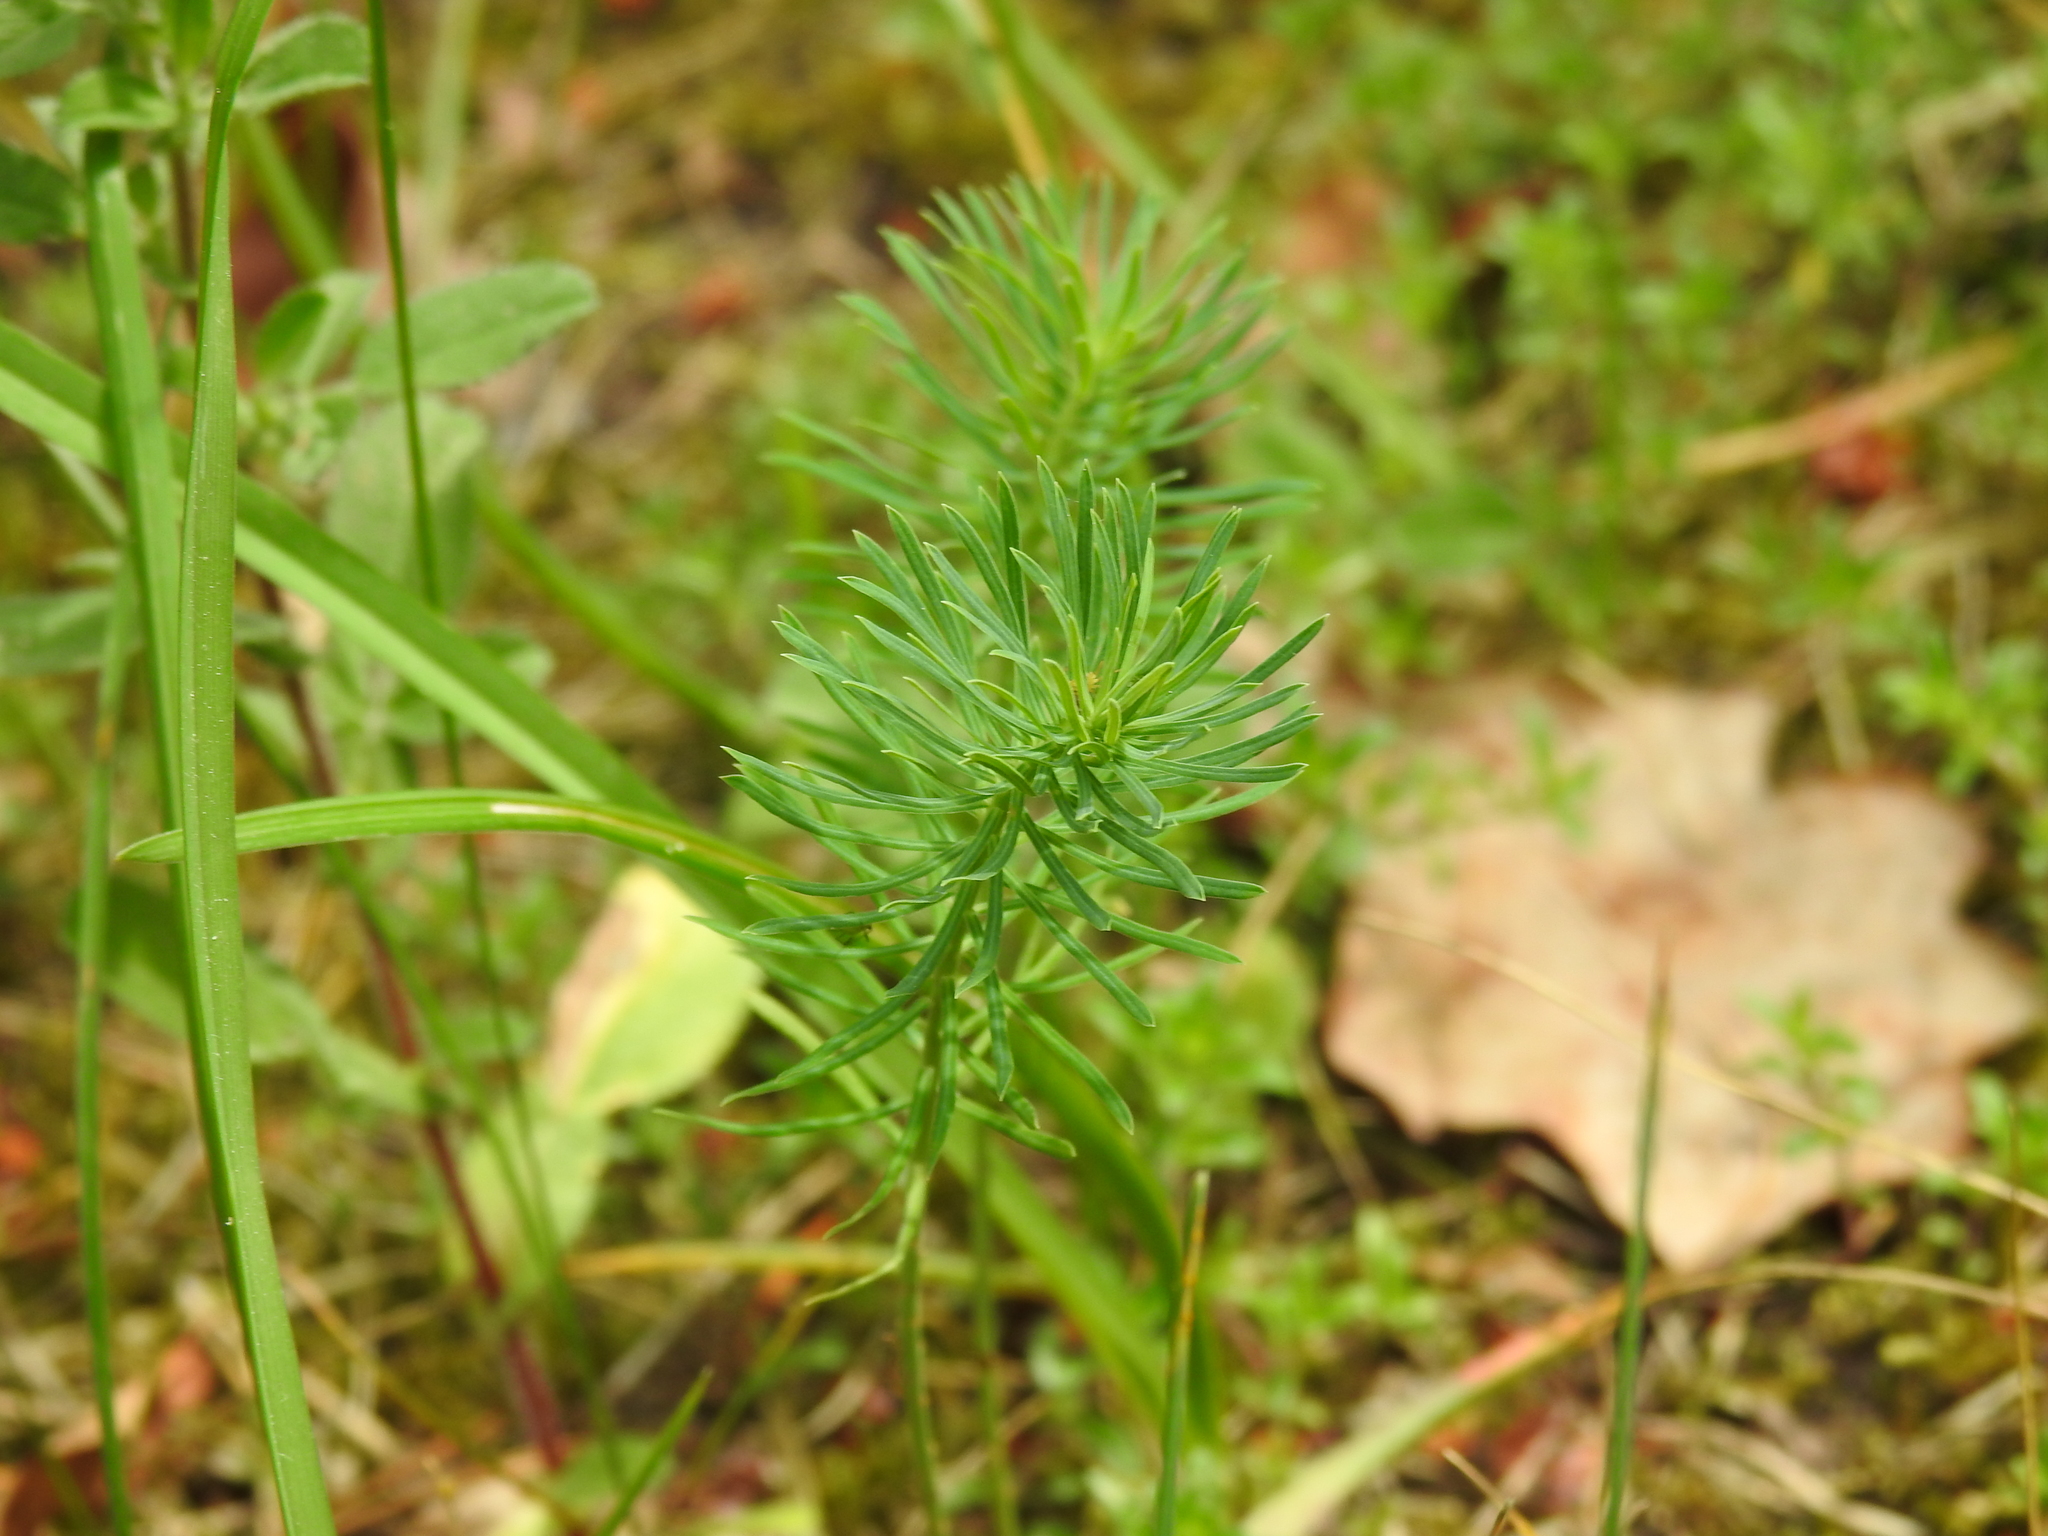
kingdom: Plantae
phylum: Tracheophyta
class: Magnoliopsida
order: Malpighiales
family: Euphorbiaceae
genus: Euphorbia
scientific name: Euphorbia cyparissias
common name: Cypress spurge
